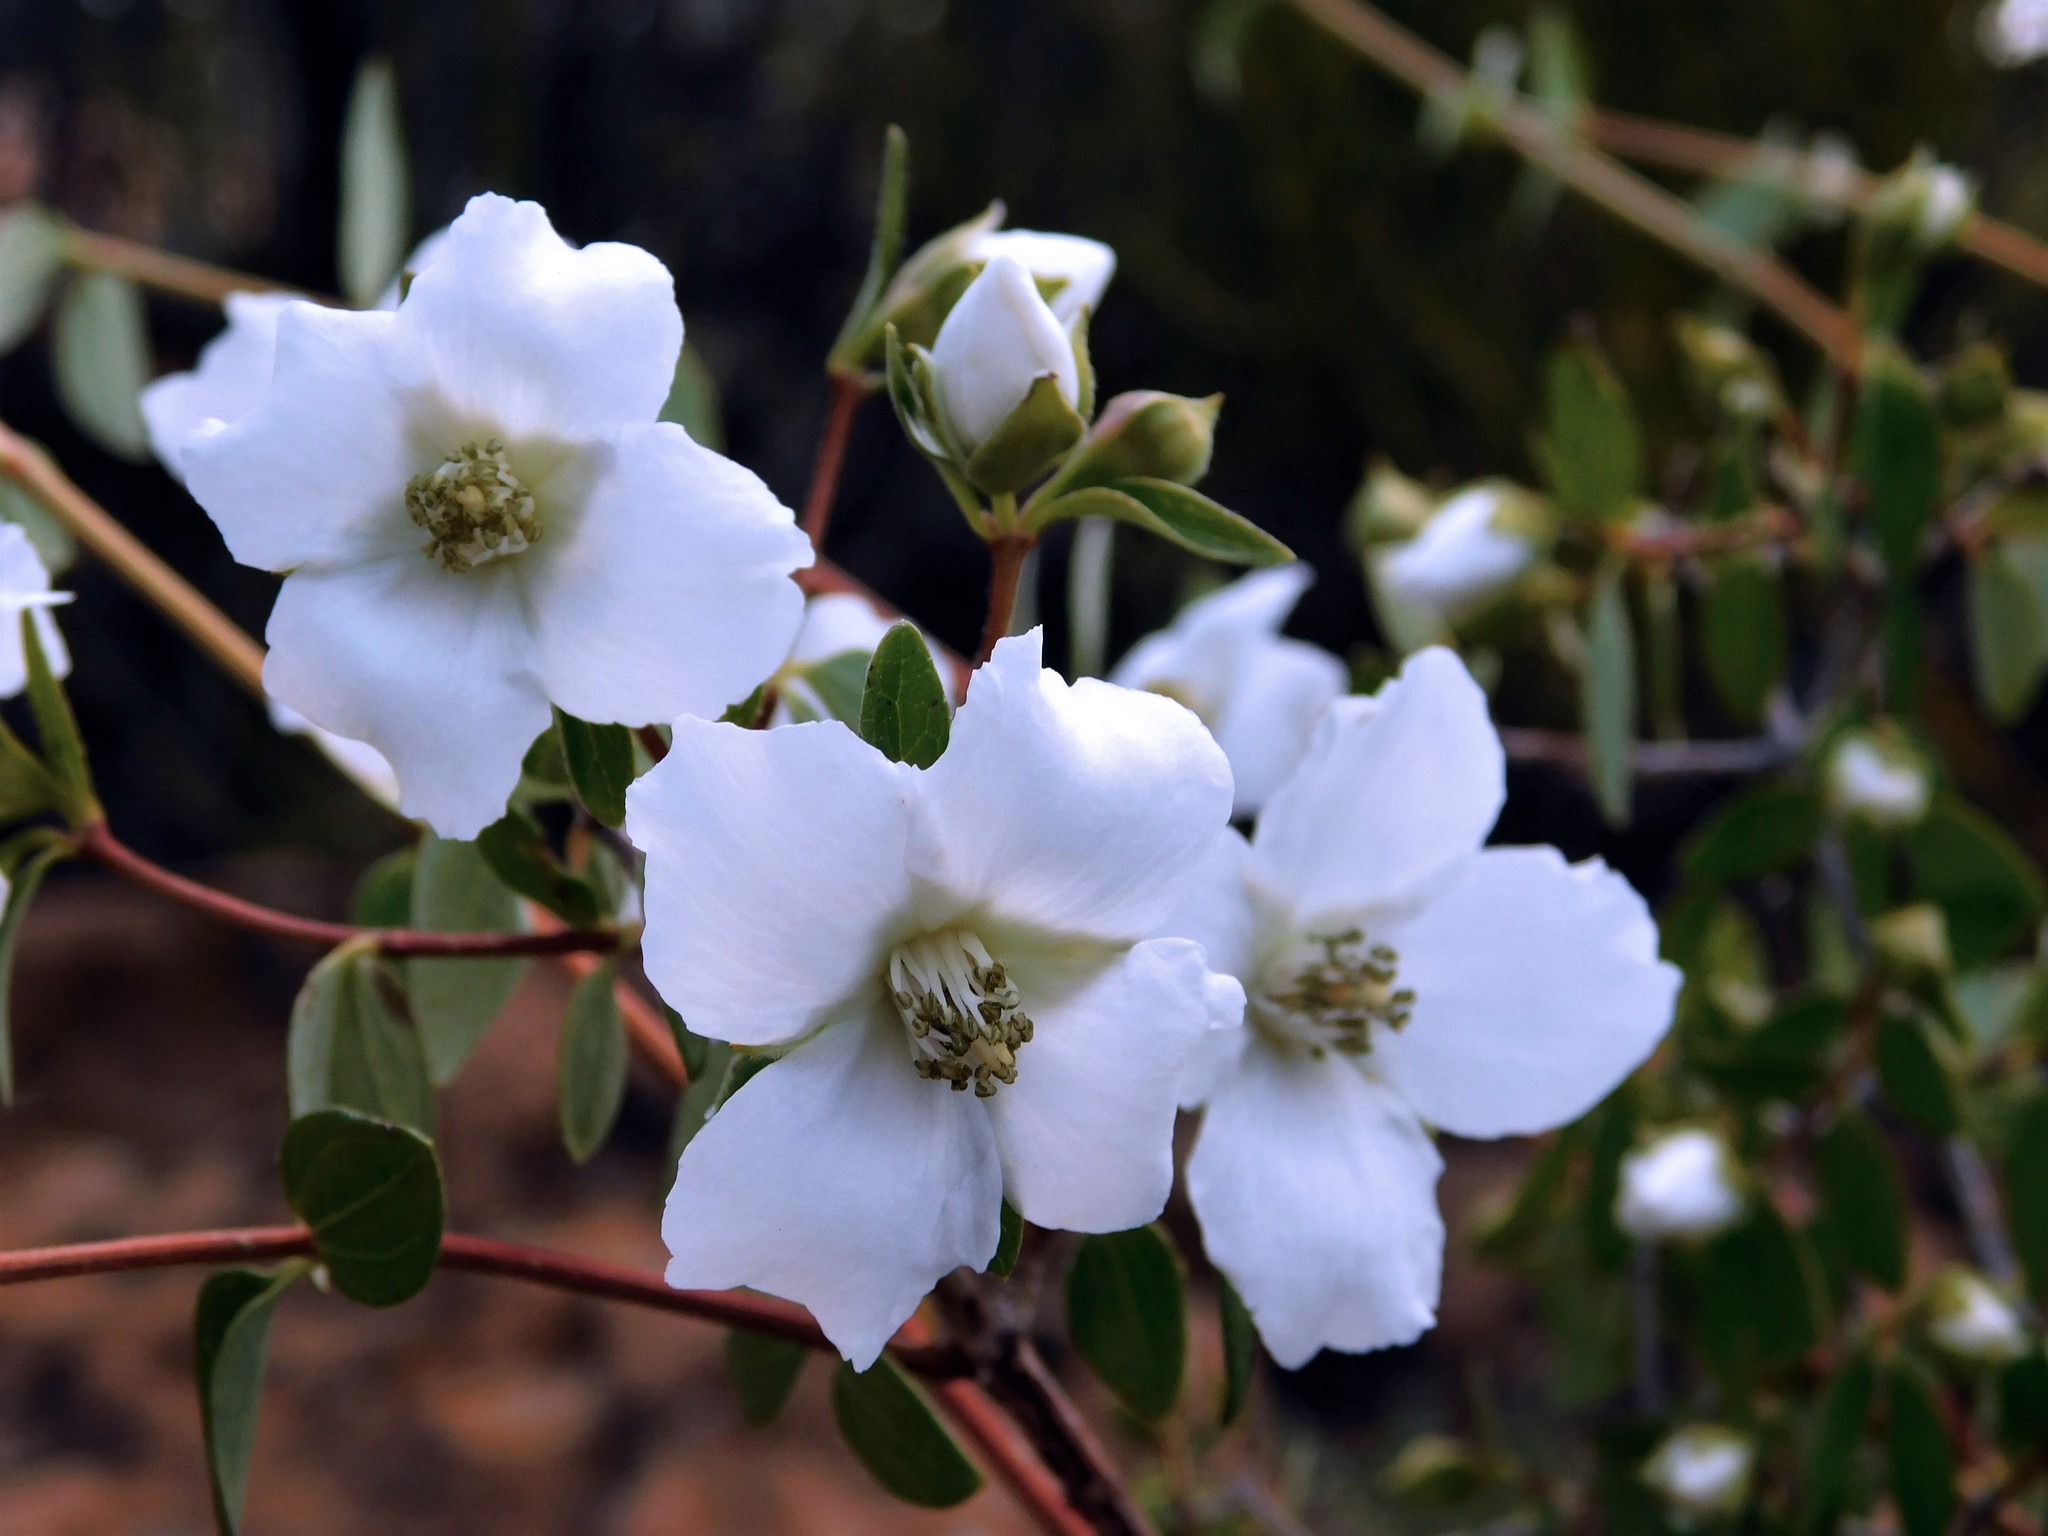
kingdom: Plantae
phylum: Tracheophyta
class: Magnoliopsida
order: Cornales
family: Hydrangeaceae
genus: Philadelphus
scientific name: Philadelphus microphyllus
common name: Desert mock orange
